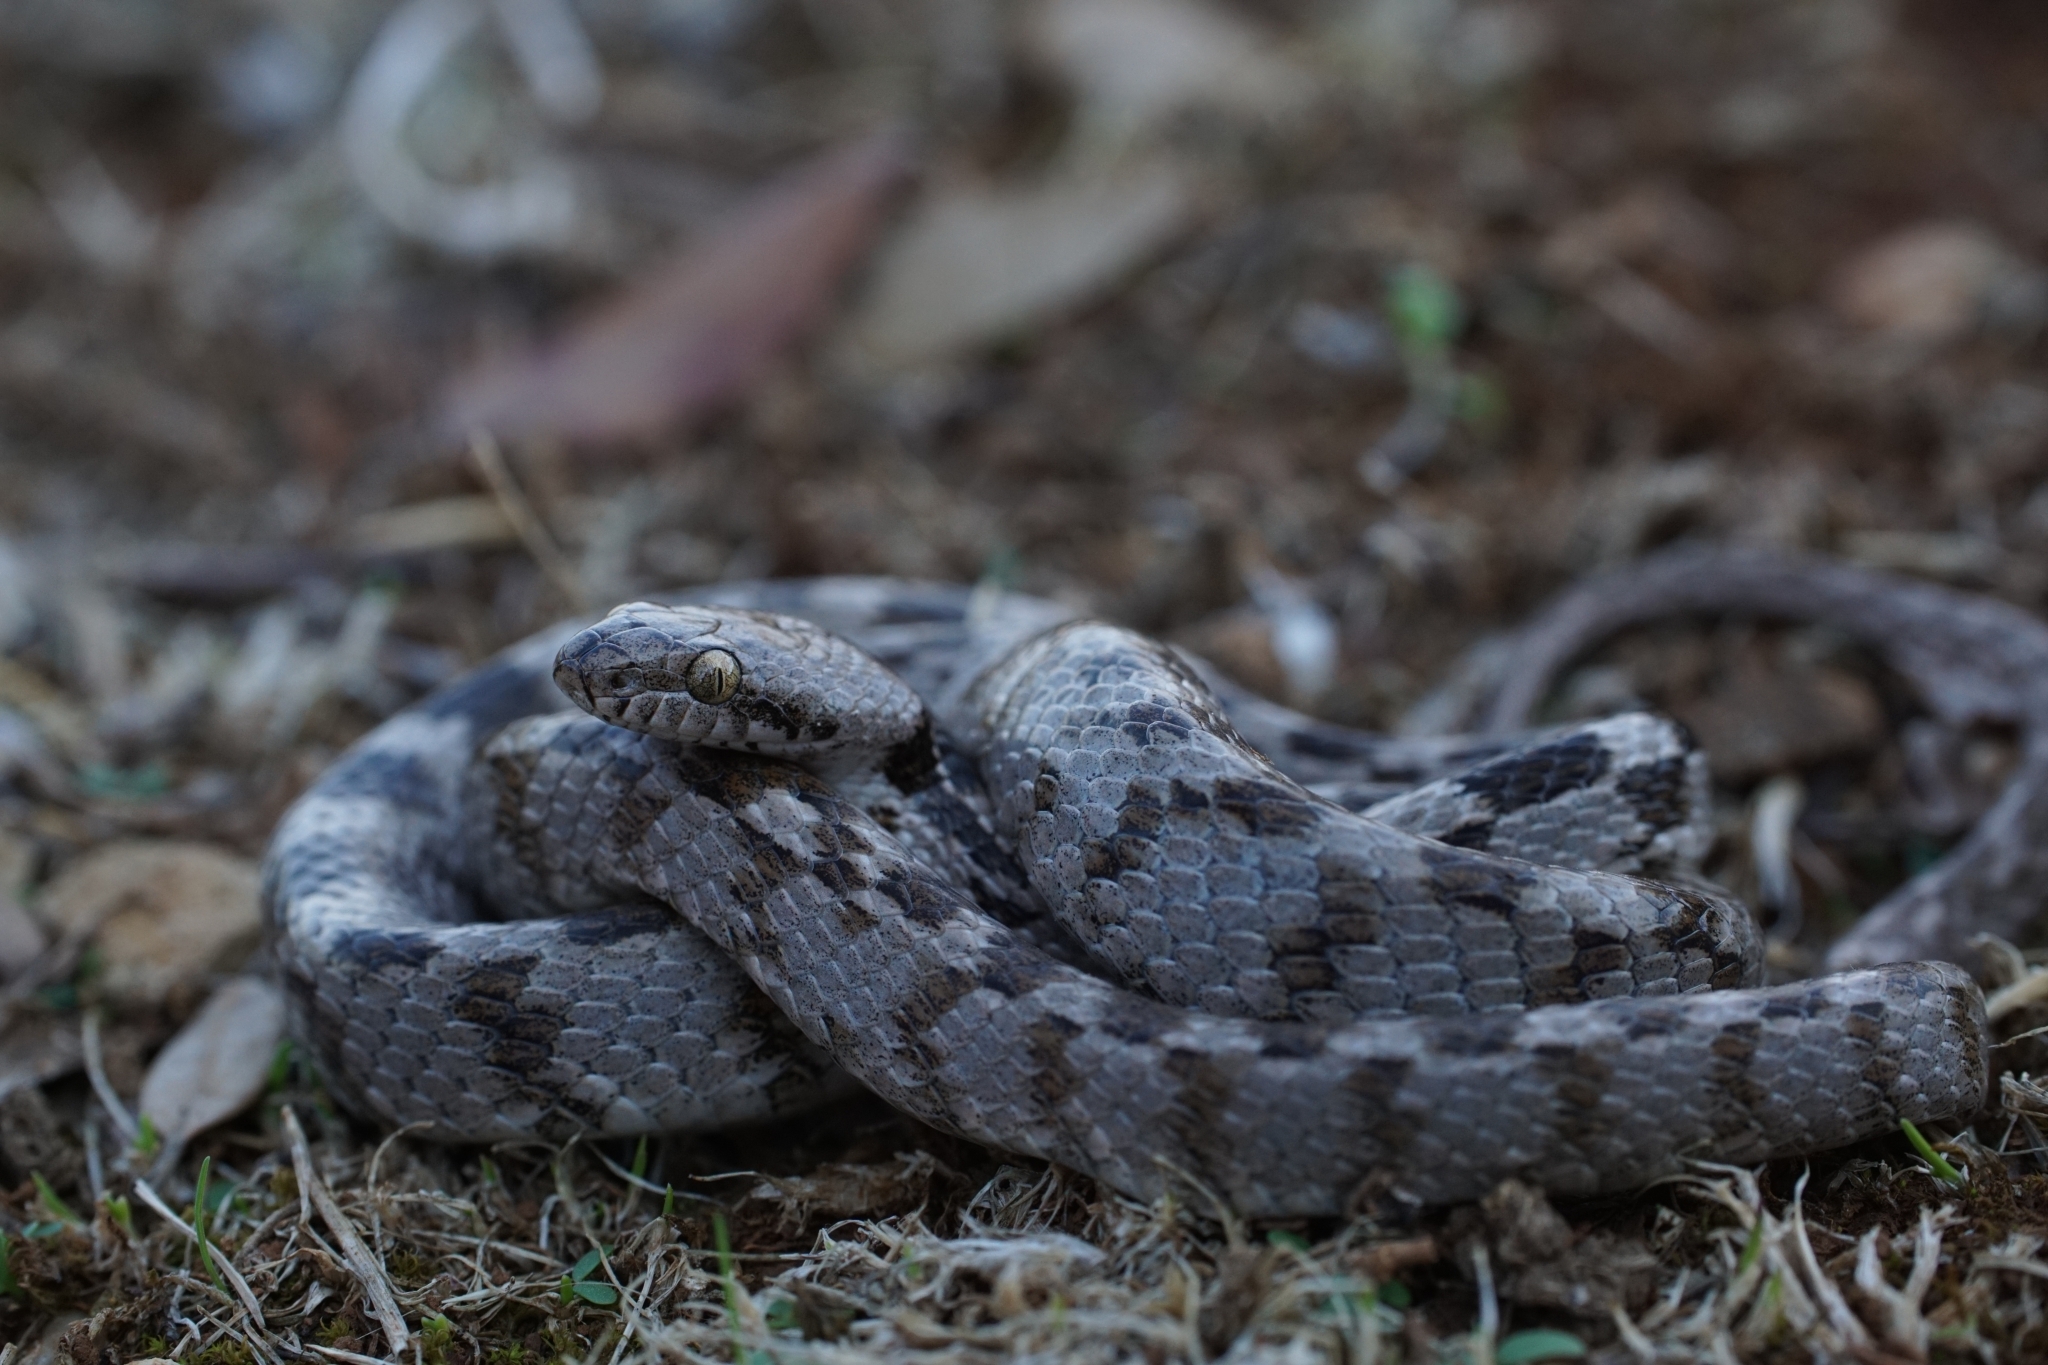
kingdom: Animalia
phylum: Chordata
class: Squamata
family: Colubridae
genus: Telescopus
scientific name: Telescopus fallax
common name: Cat snake
